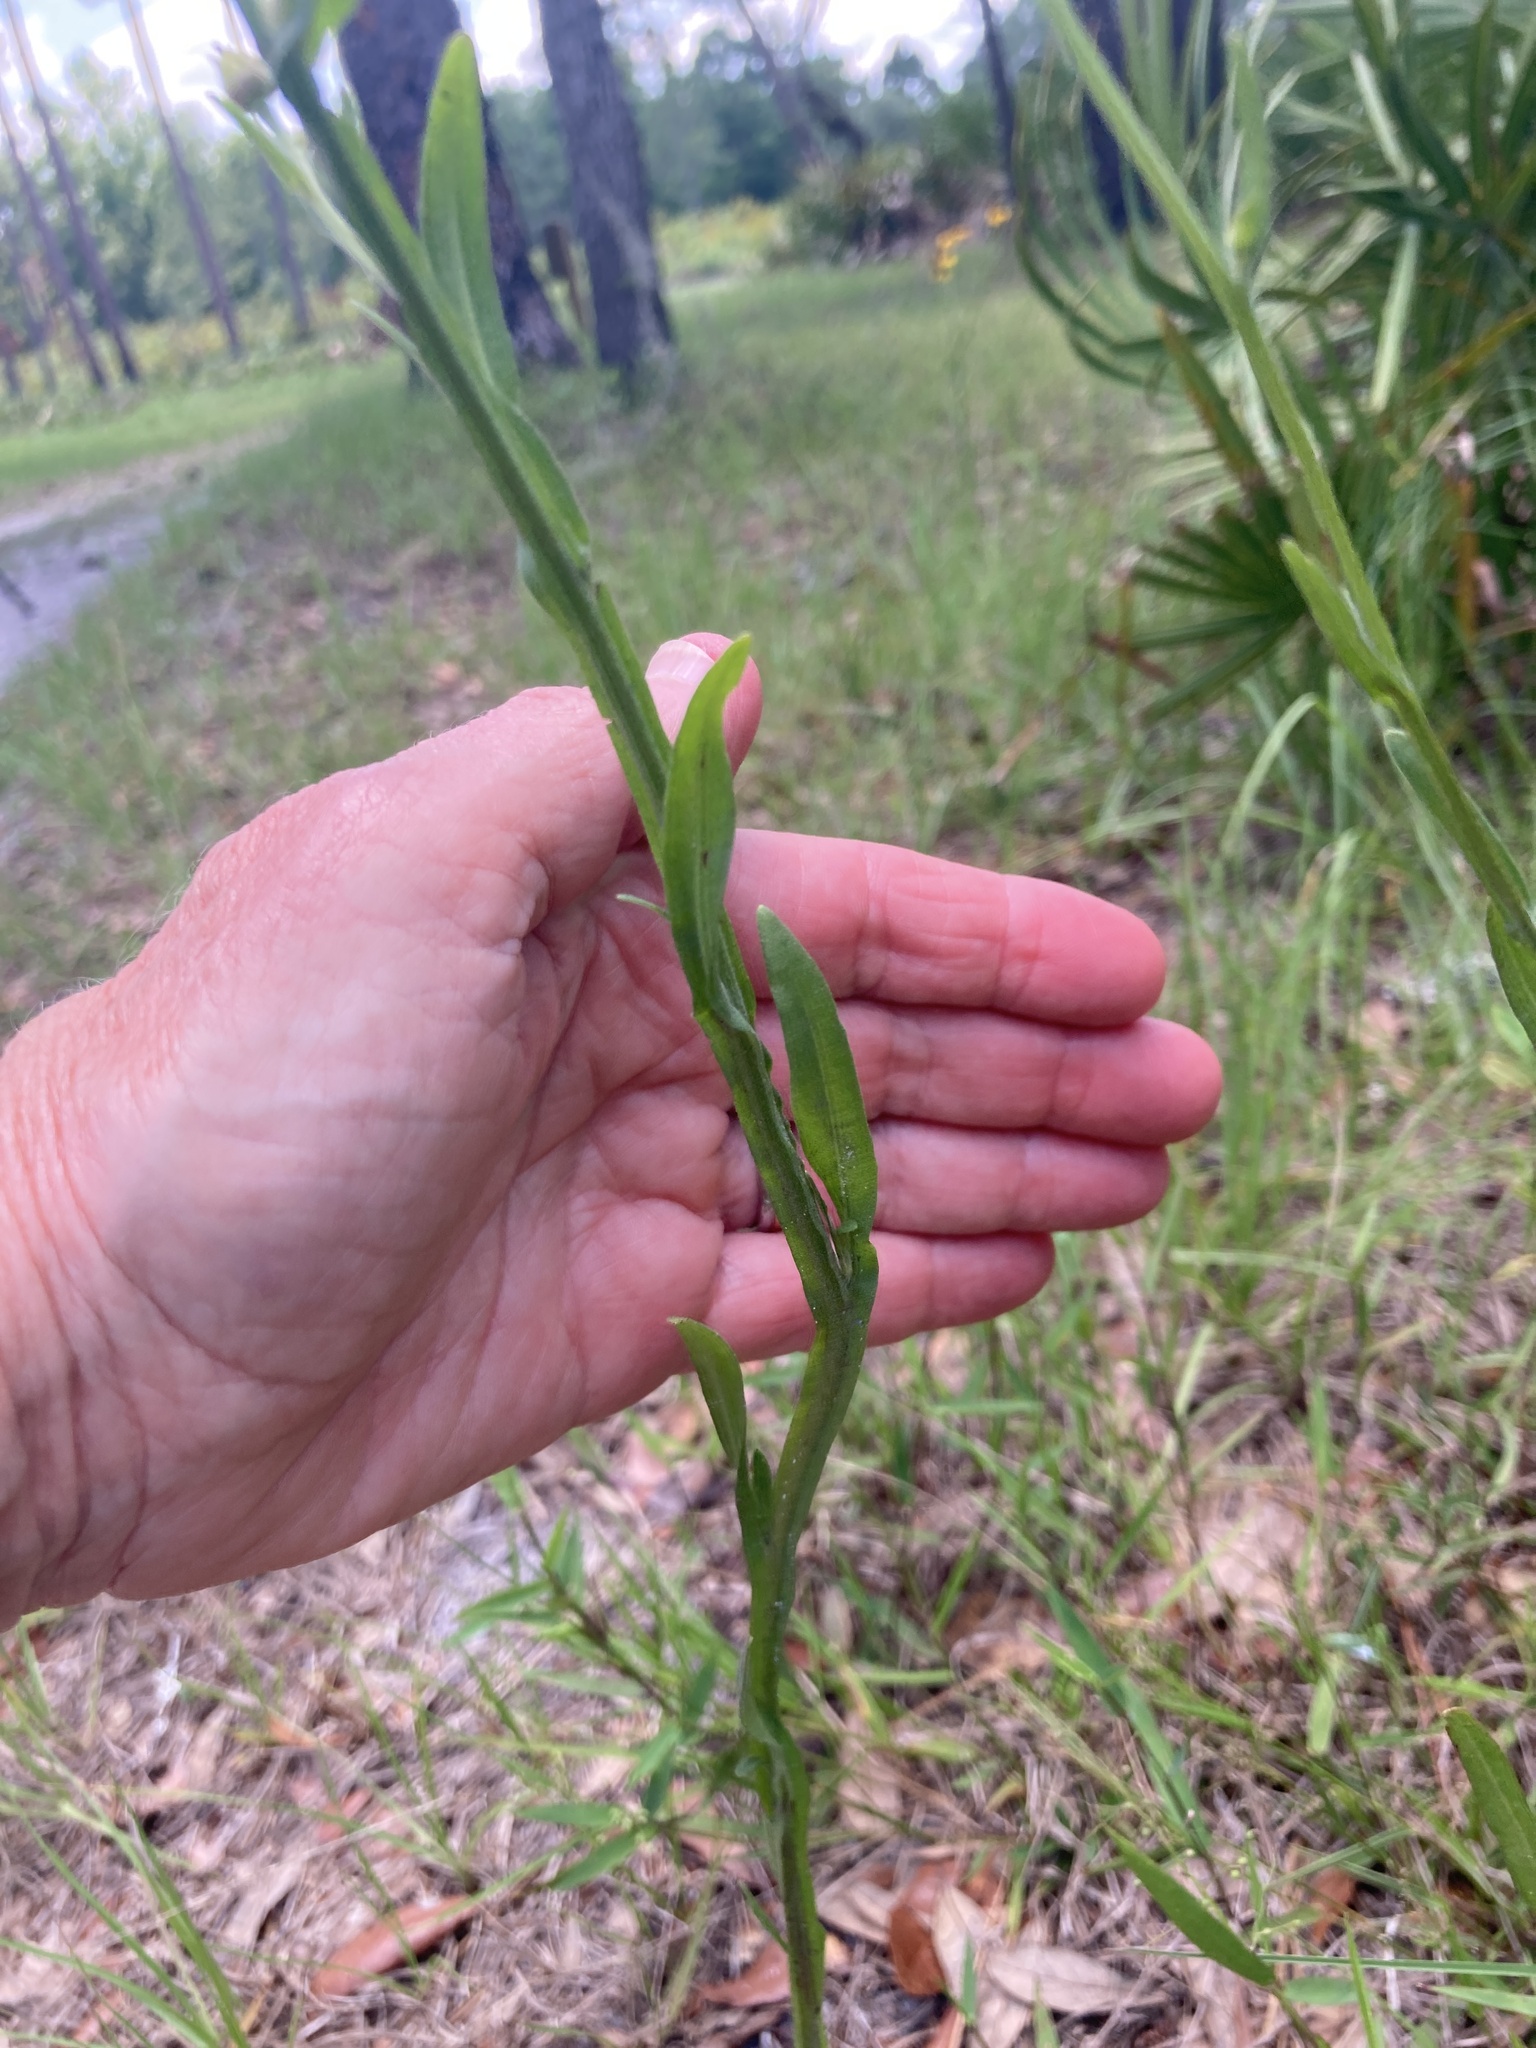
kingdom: Plantae
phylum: Tracheophyta
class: Magnoliopsida
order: Asterales
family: Asteraceae
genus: Helenium
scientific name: Helenium flexuosum
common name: Naked-flowered sneezeweed
